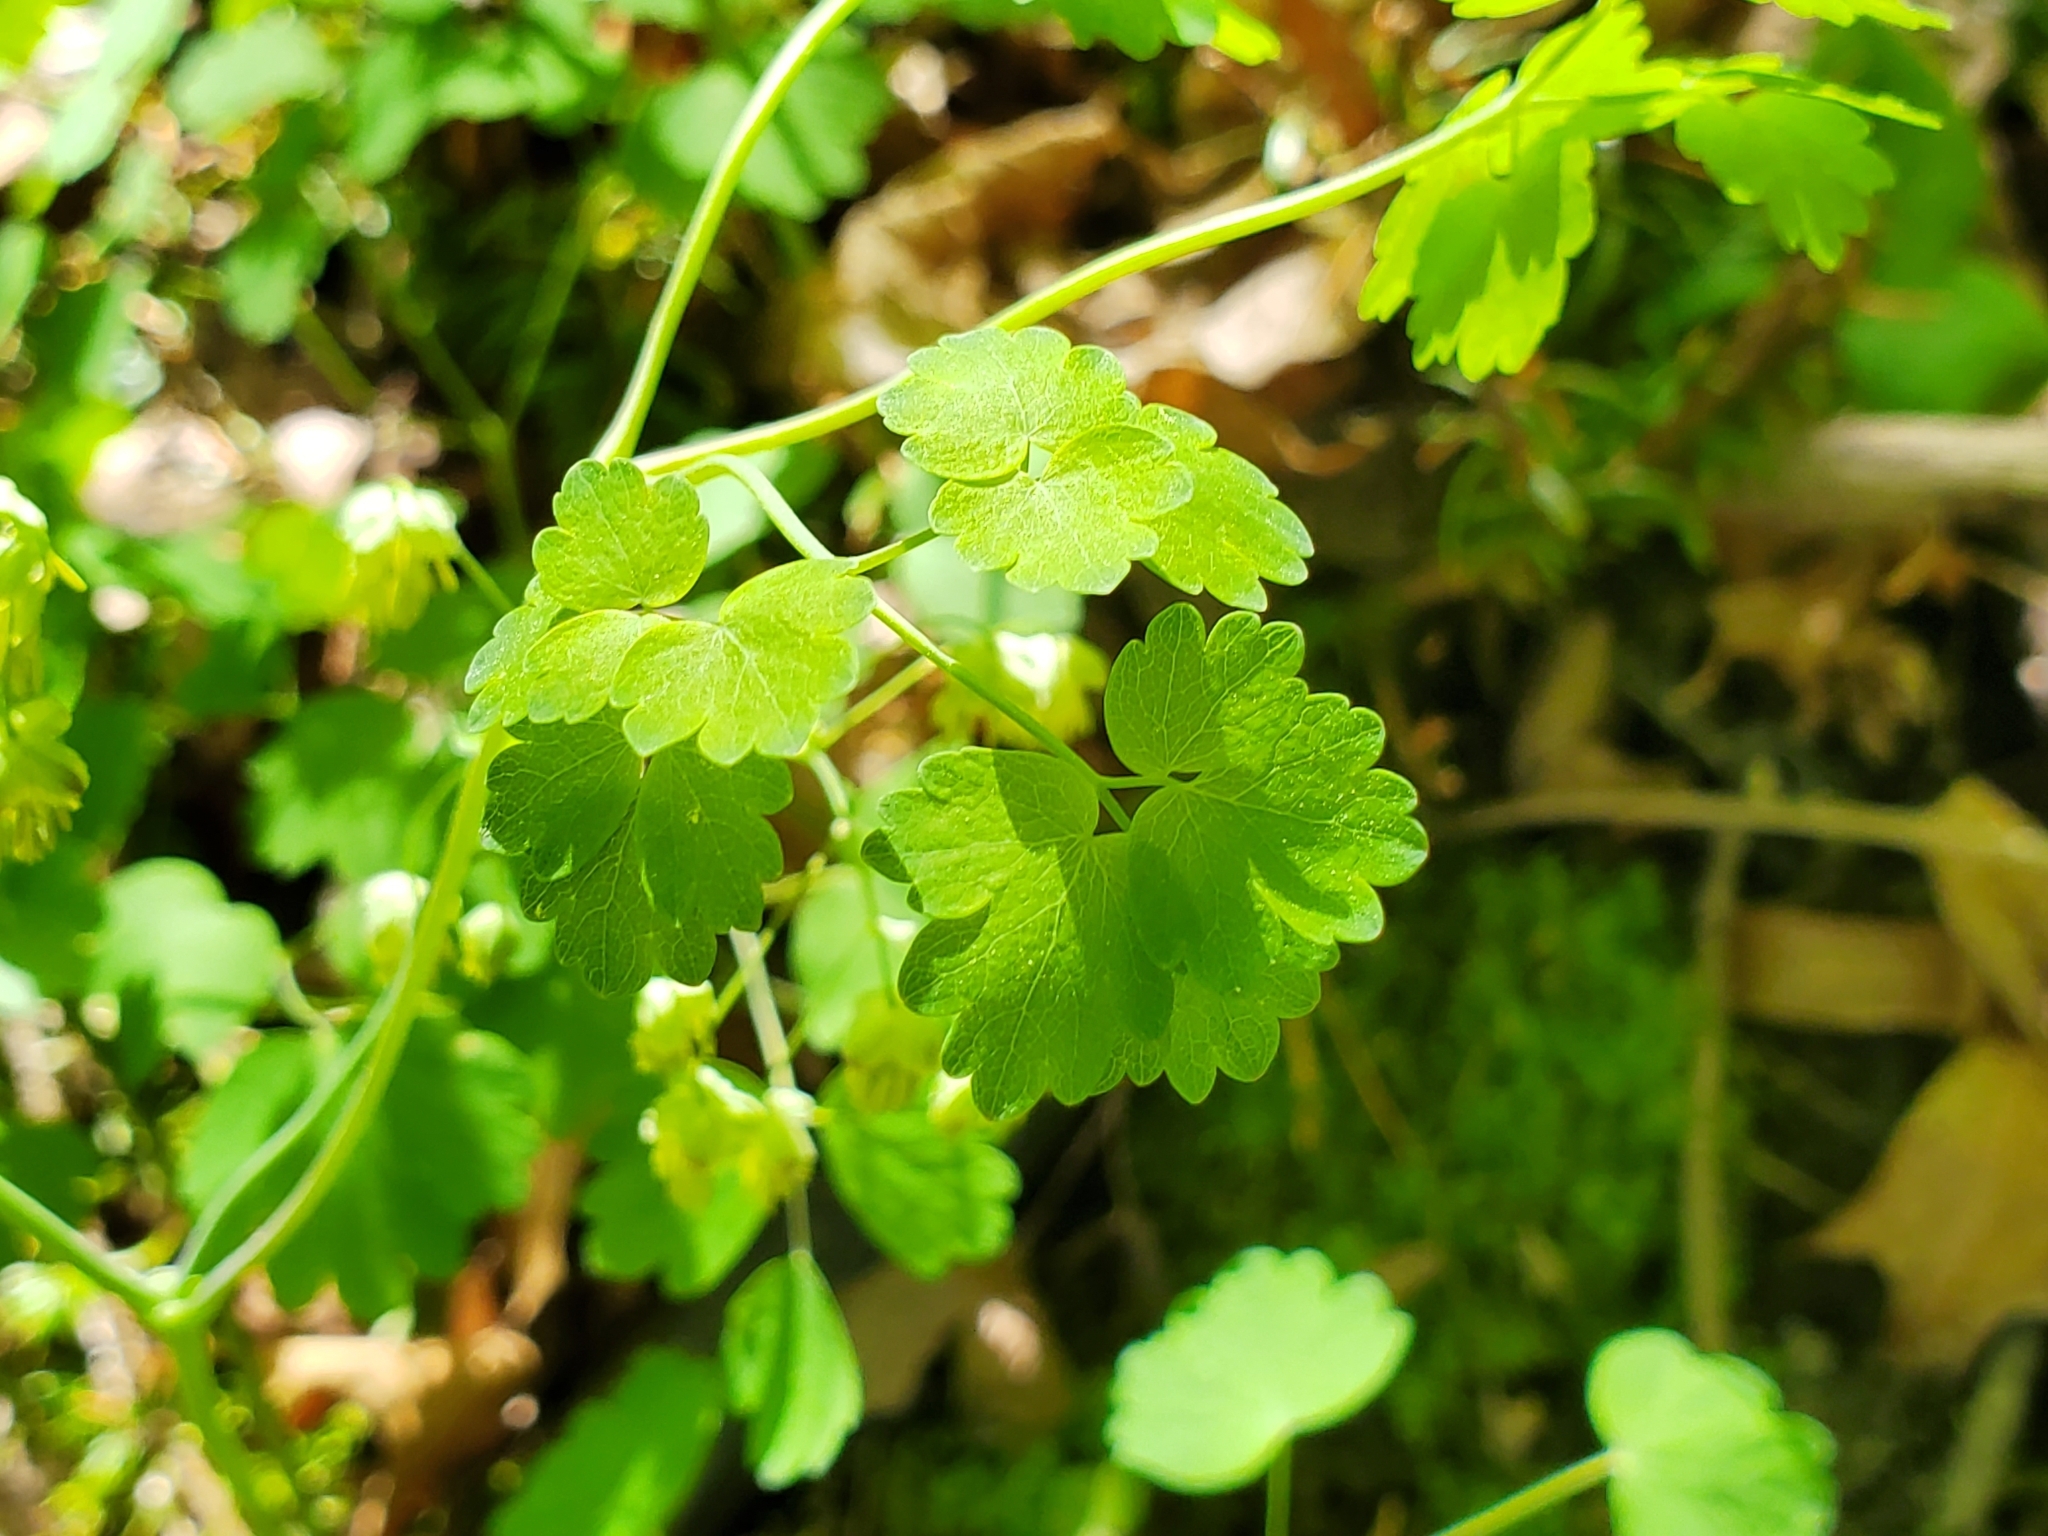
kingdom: Plantae
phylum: Tracheophyta
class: Magnoliopsida
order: Ranunculales
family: Ranunculaceae
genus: Thalictrum
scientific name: Thalictrum dioicum
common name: Early meadow-rue
